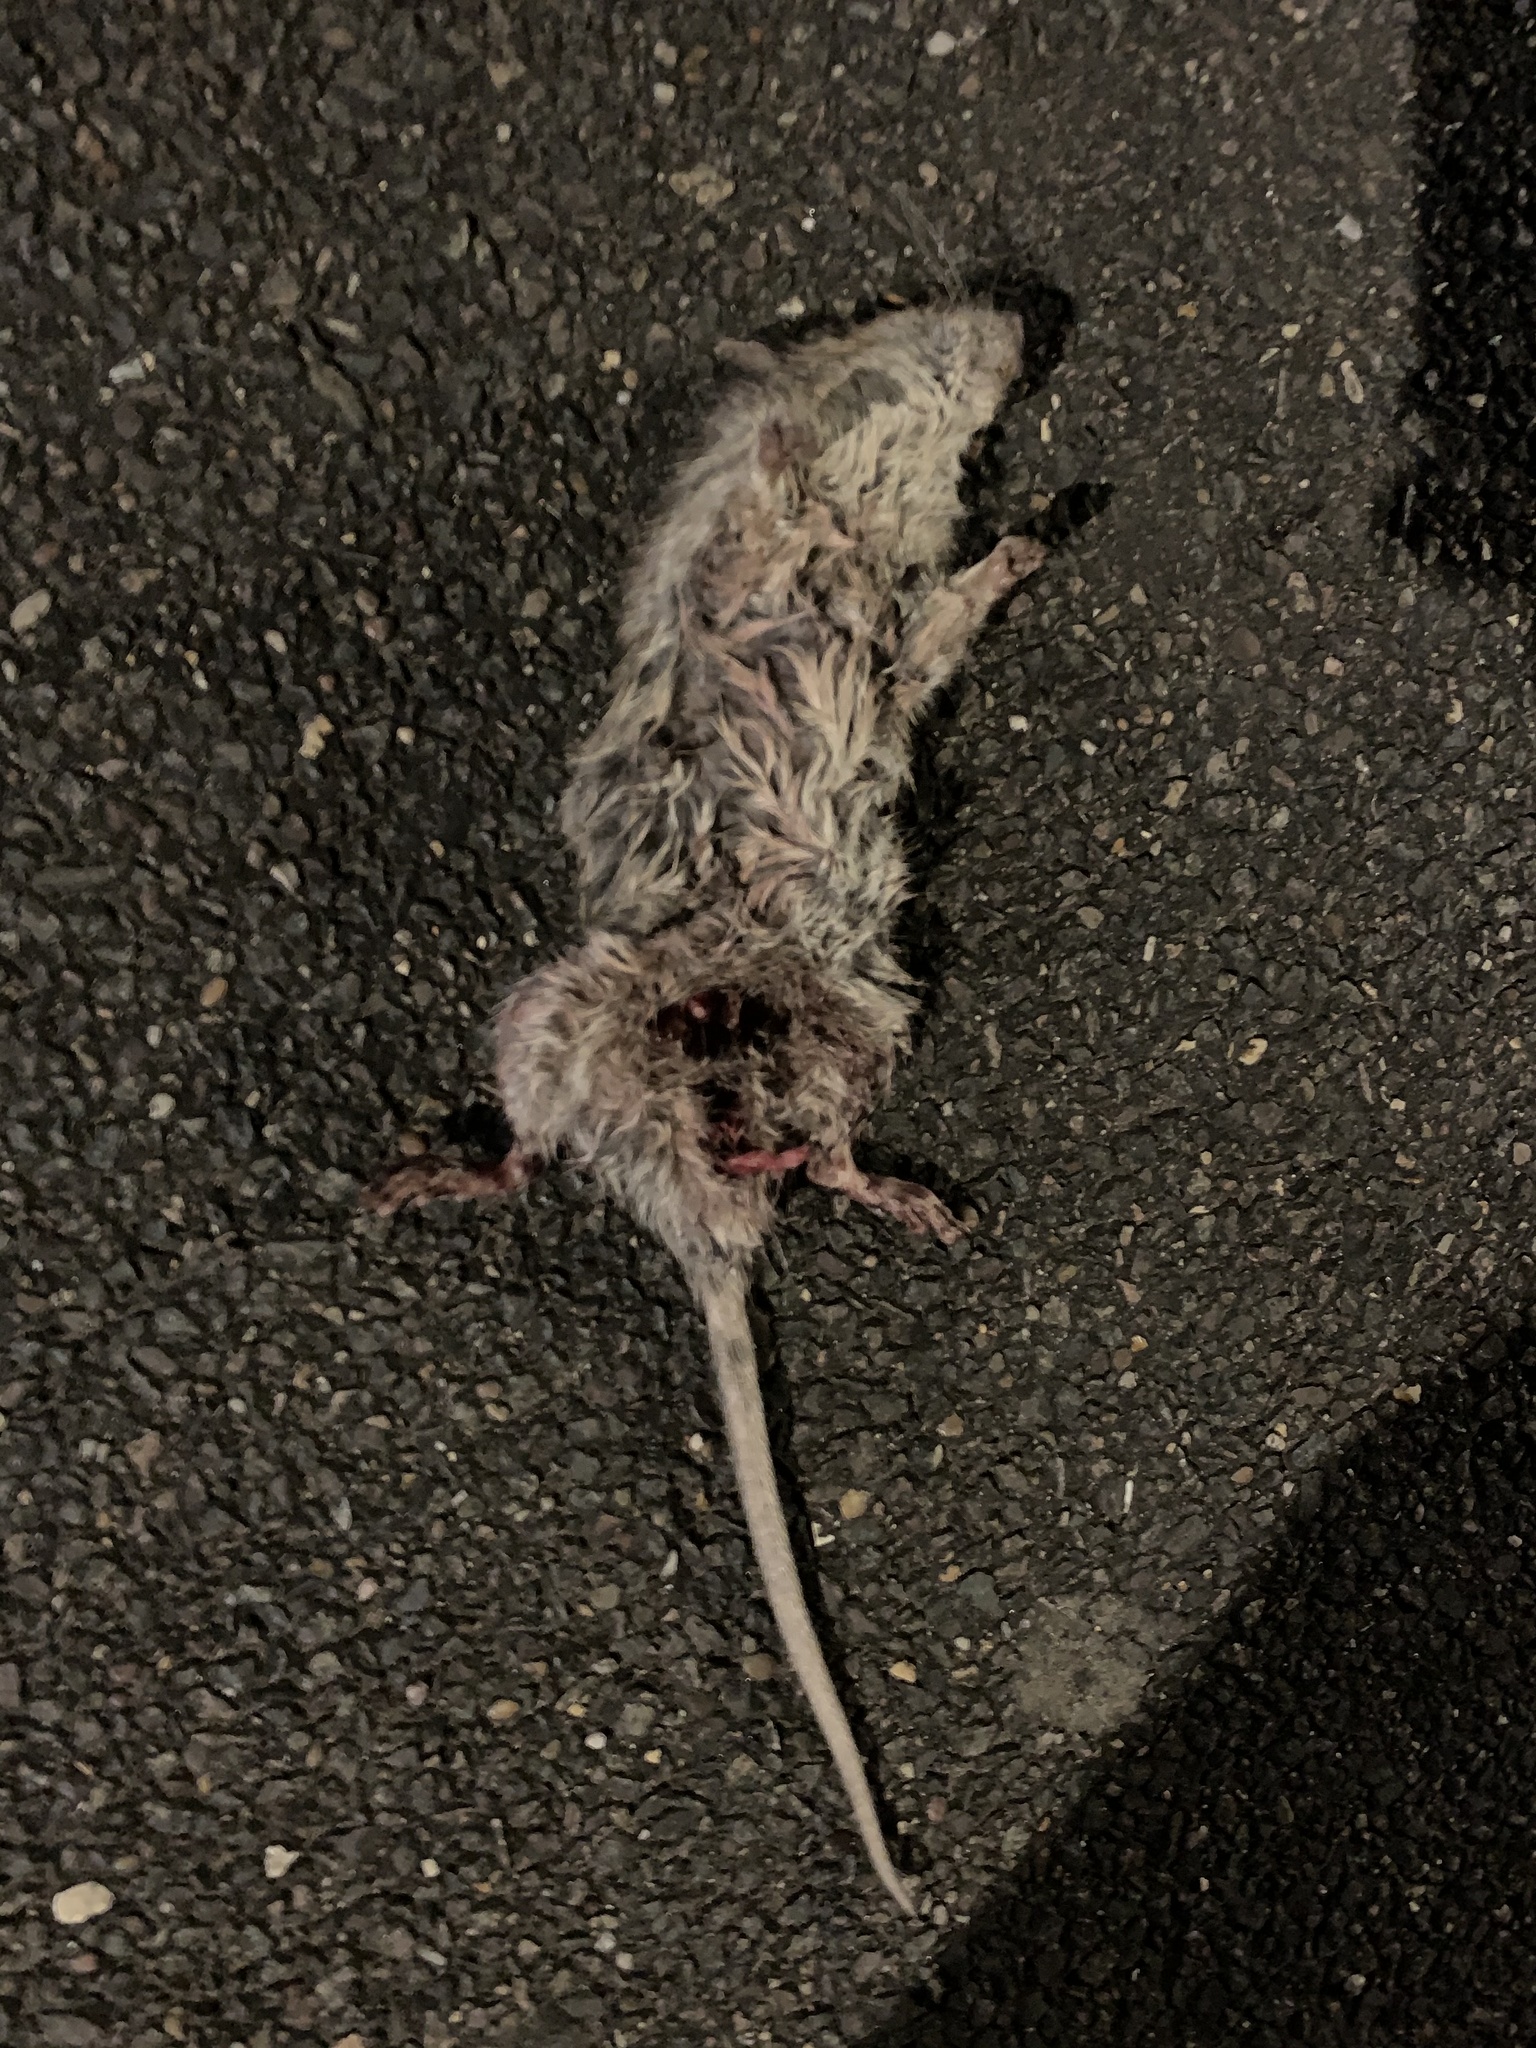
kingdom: Animalia
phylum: Chordata
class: Mammalia
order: Rodentia
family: Muridae
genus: Rattus
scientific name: Rattus norvegicus
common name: Brown rat
